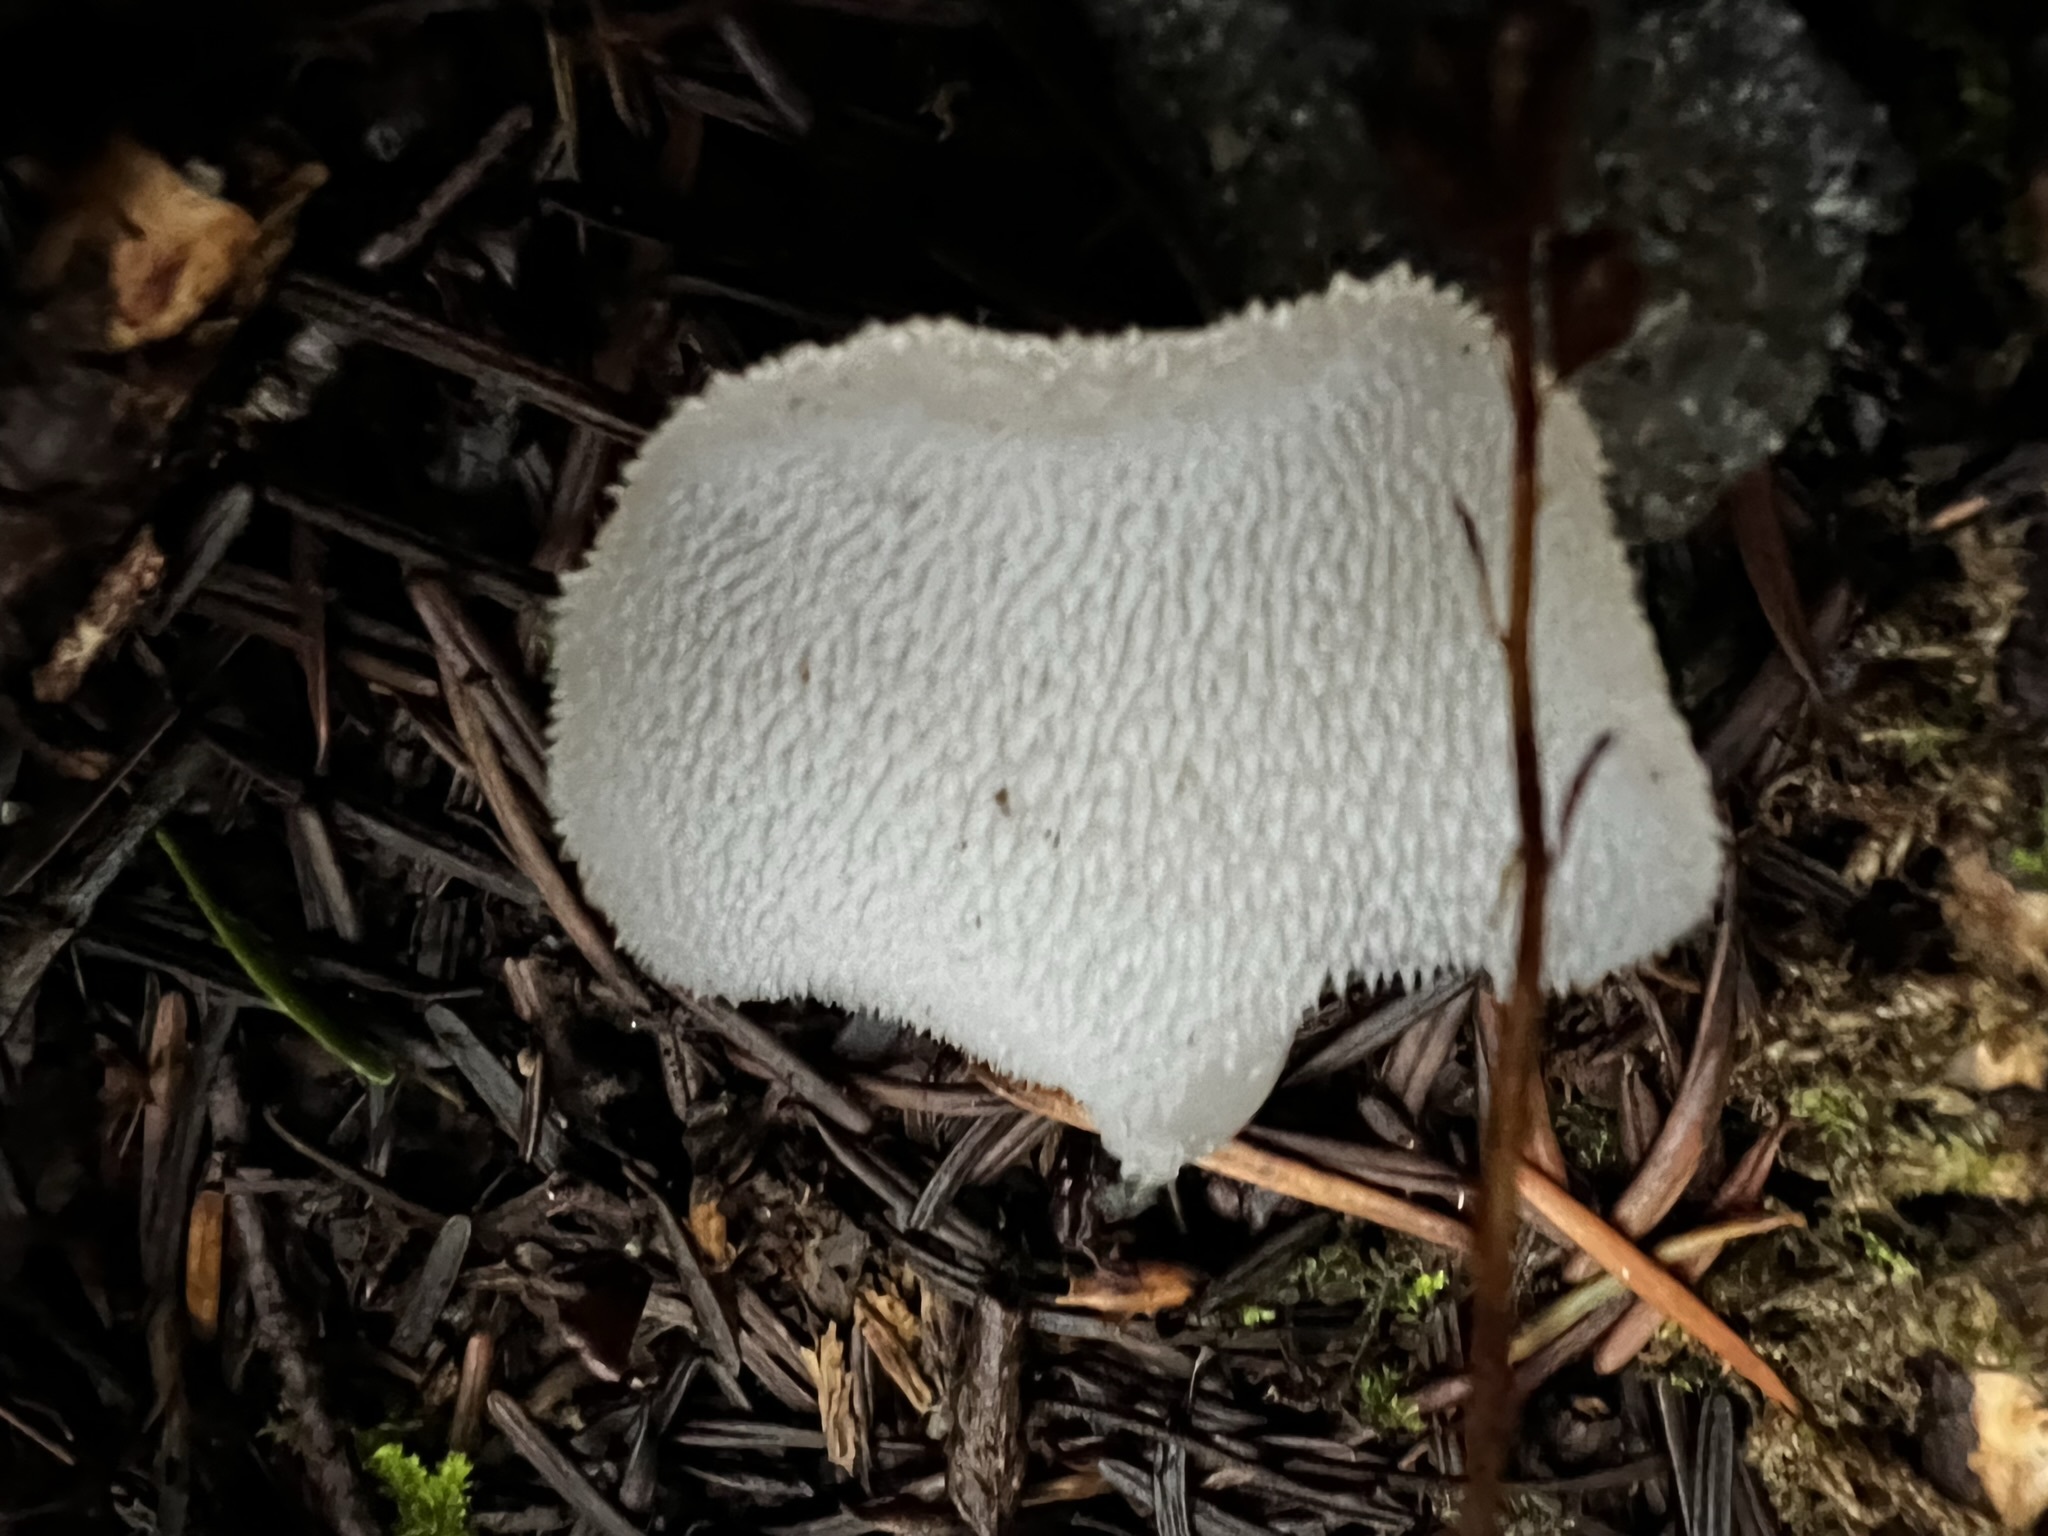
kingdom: Fungi
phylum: Basidiomycota
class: Agaricomycetes
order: Auriculariales
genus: Pseudohydnum
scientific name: Pseudohydnum gelatinosum
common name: Jelly tongue
